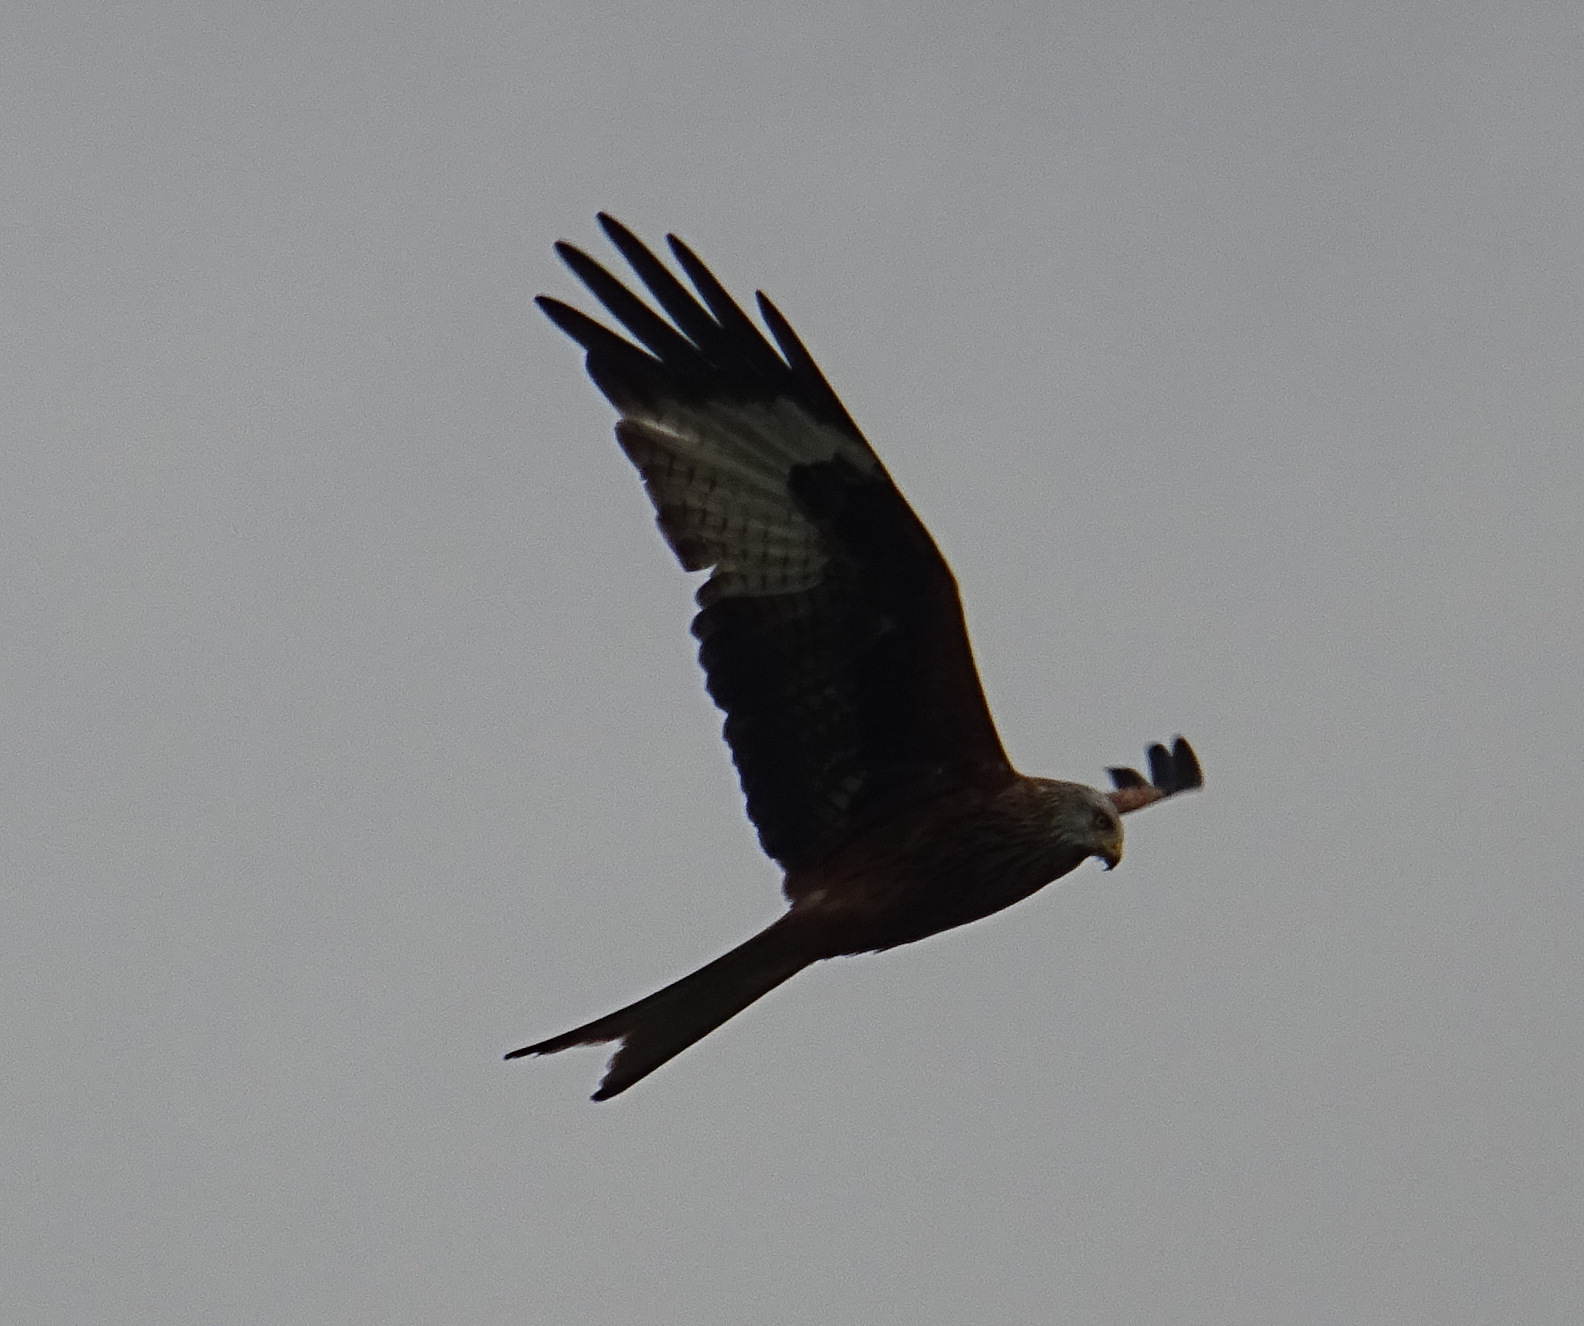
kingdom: Animalia
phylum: Chordata
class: Aves
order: Accipitriformes
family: Accipitridae
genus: Milvus
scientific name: Milvus milvus
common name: Red kite
